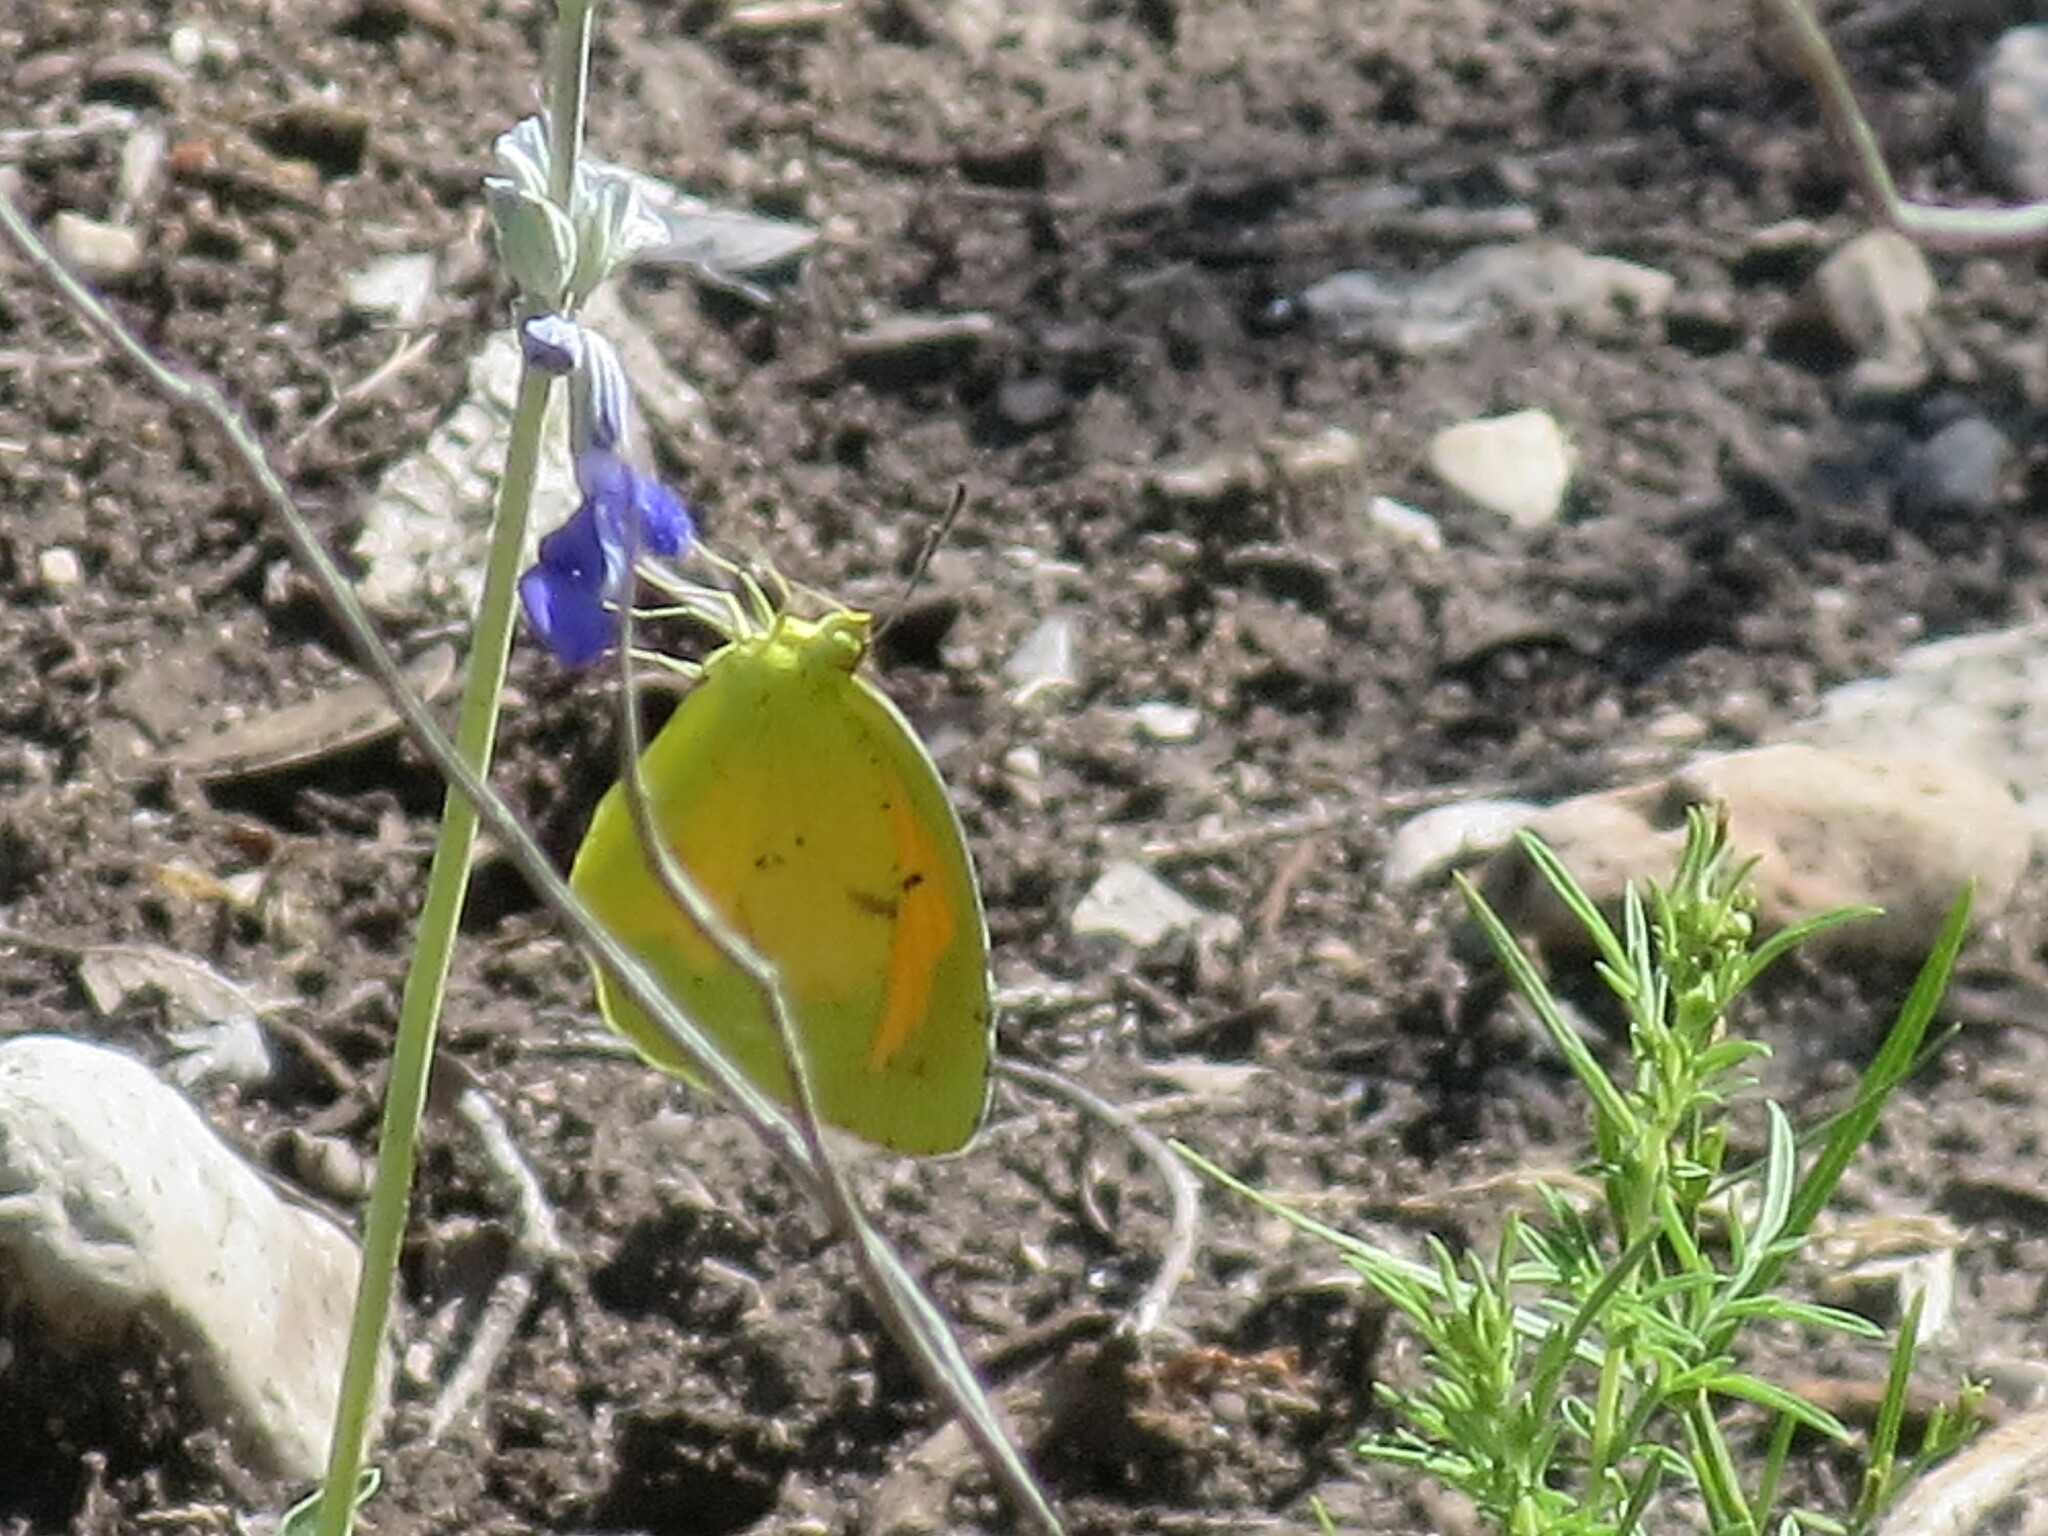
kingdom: Animalia
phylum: Arthropoda
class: Insecta
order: Lepidoptera
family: Pieridae
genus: Abaeis
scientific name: Abaeis nicippe
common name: Sleepy orange
